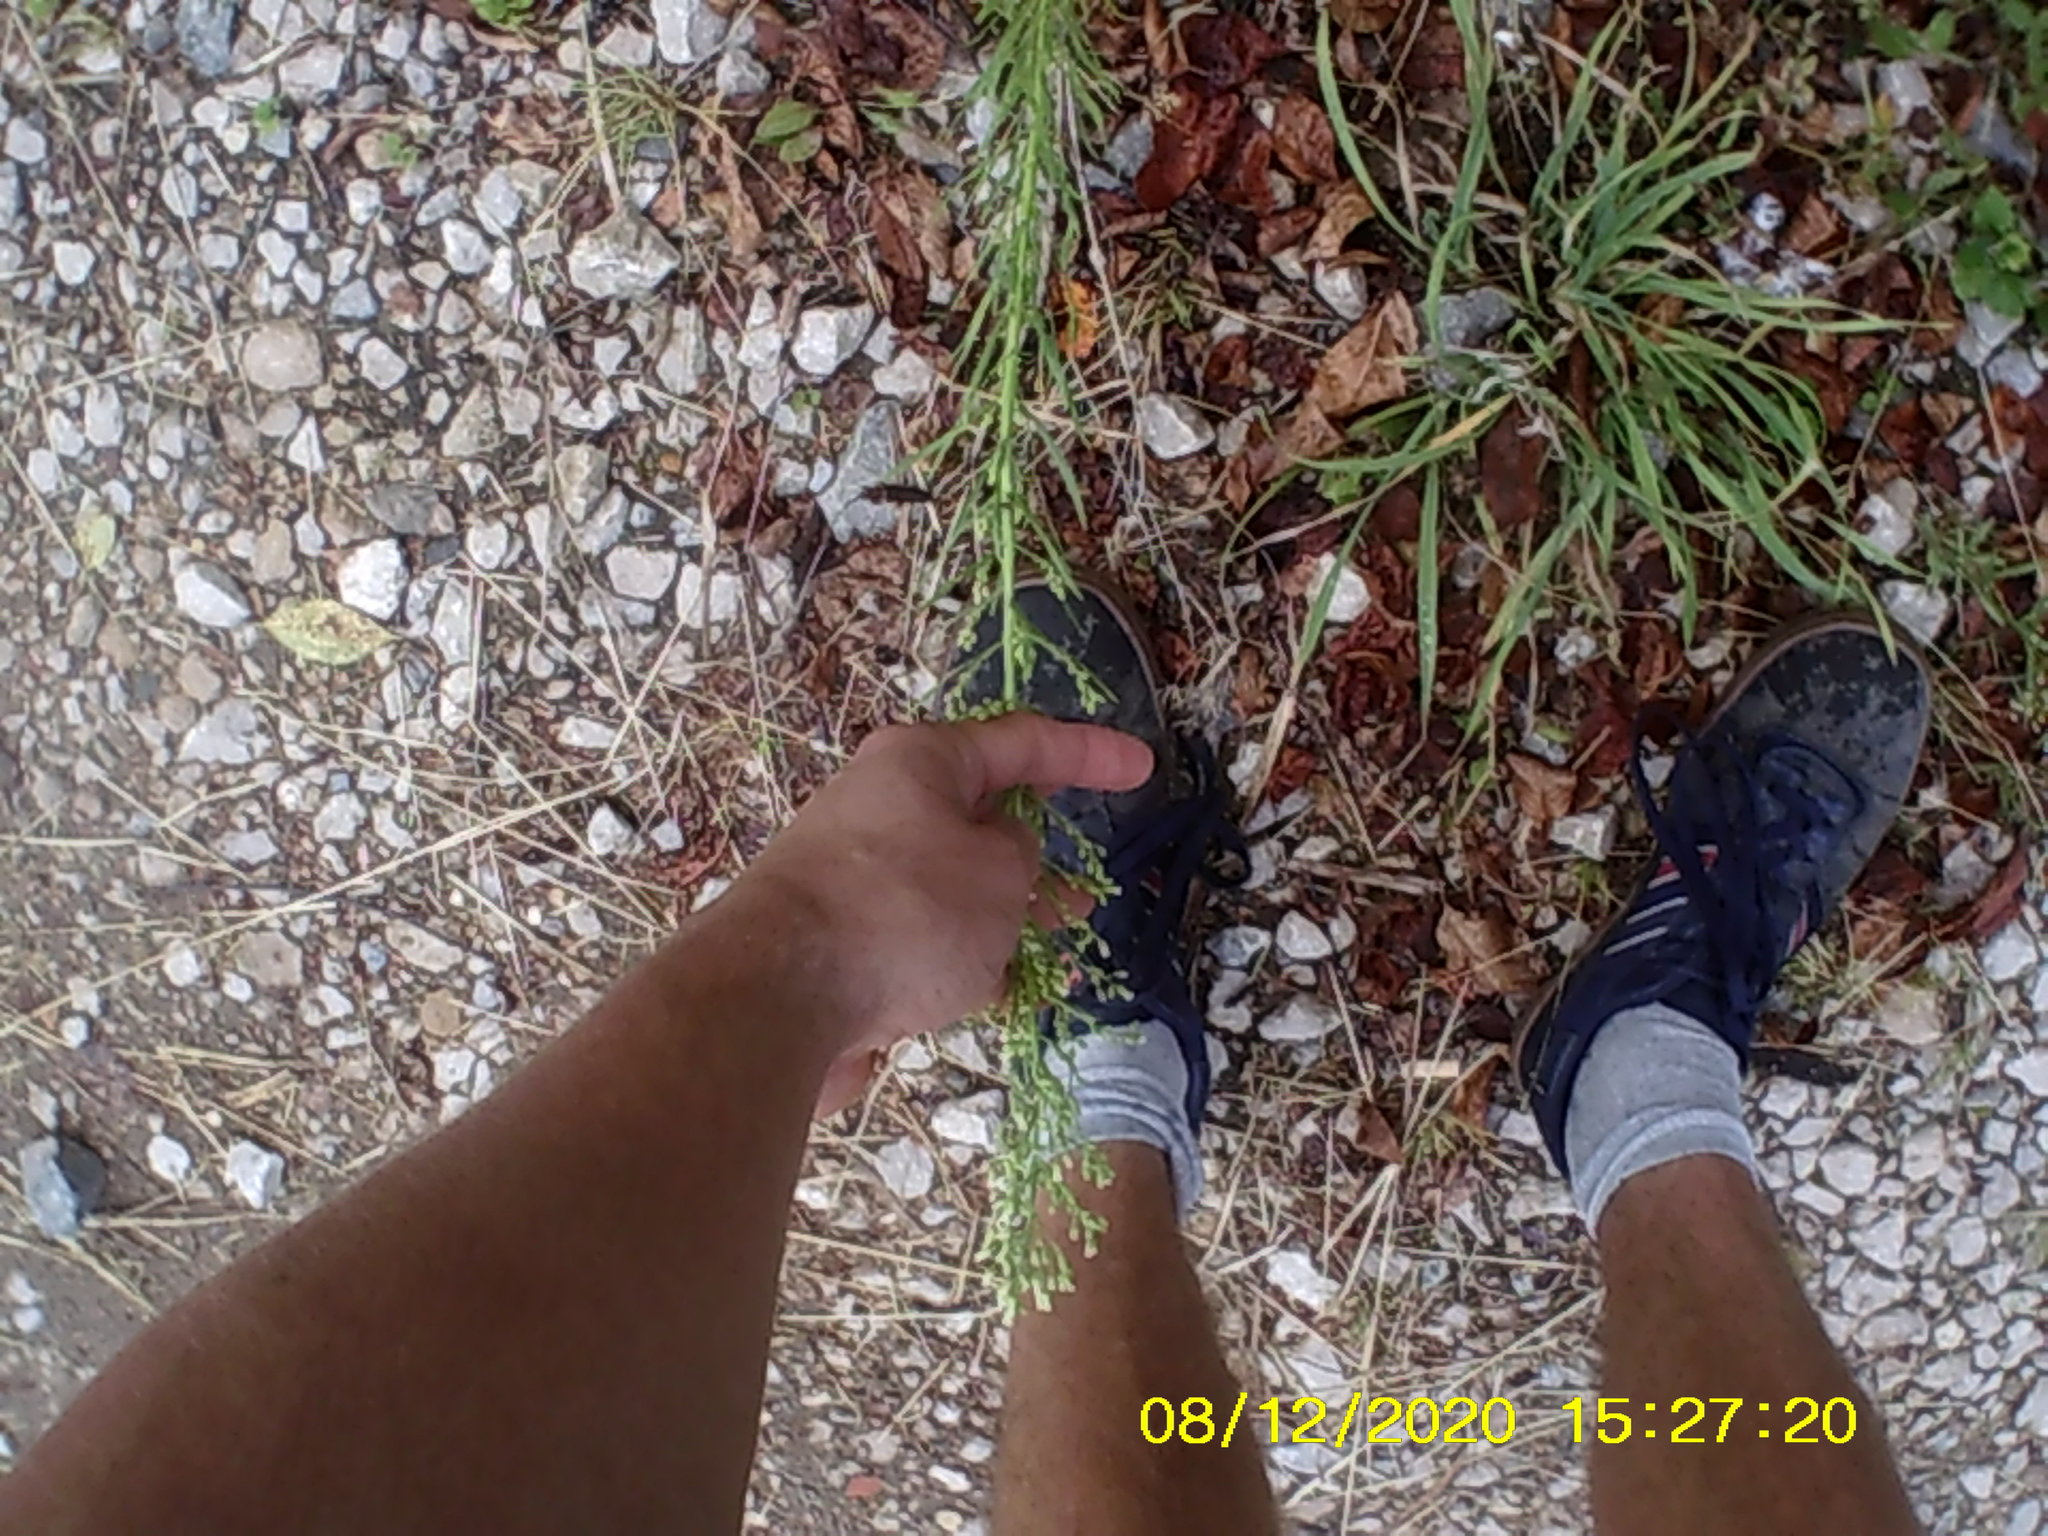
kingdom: Plantae
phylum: Tracheophyta
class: Magnoliopsida
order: Asterales
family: Asteraceae
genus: Erigeron
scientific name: Erigeron canadensis
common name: Canadian fleabane
